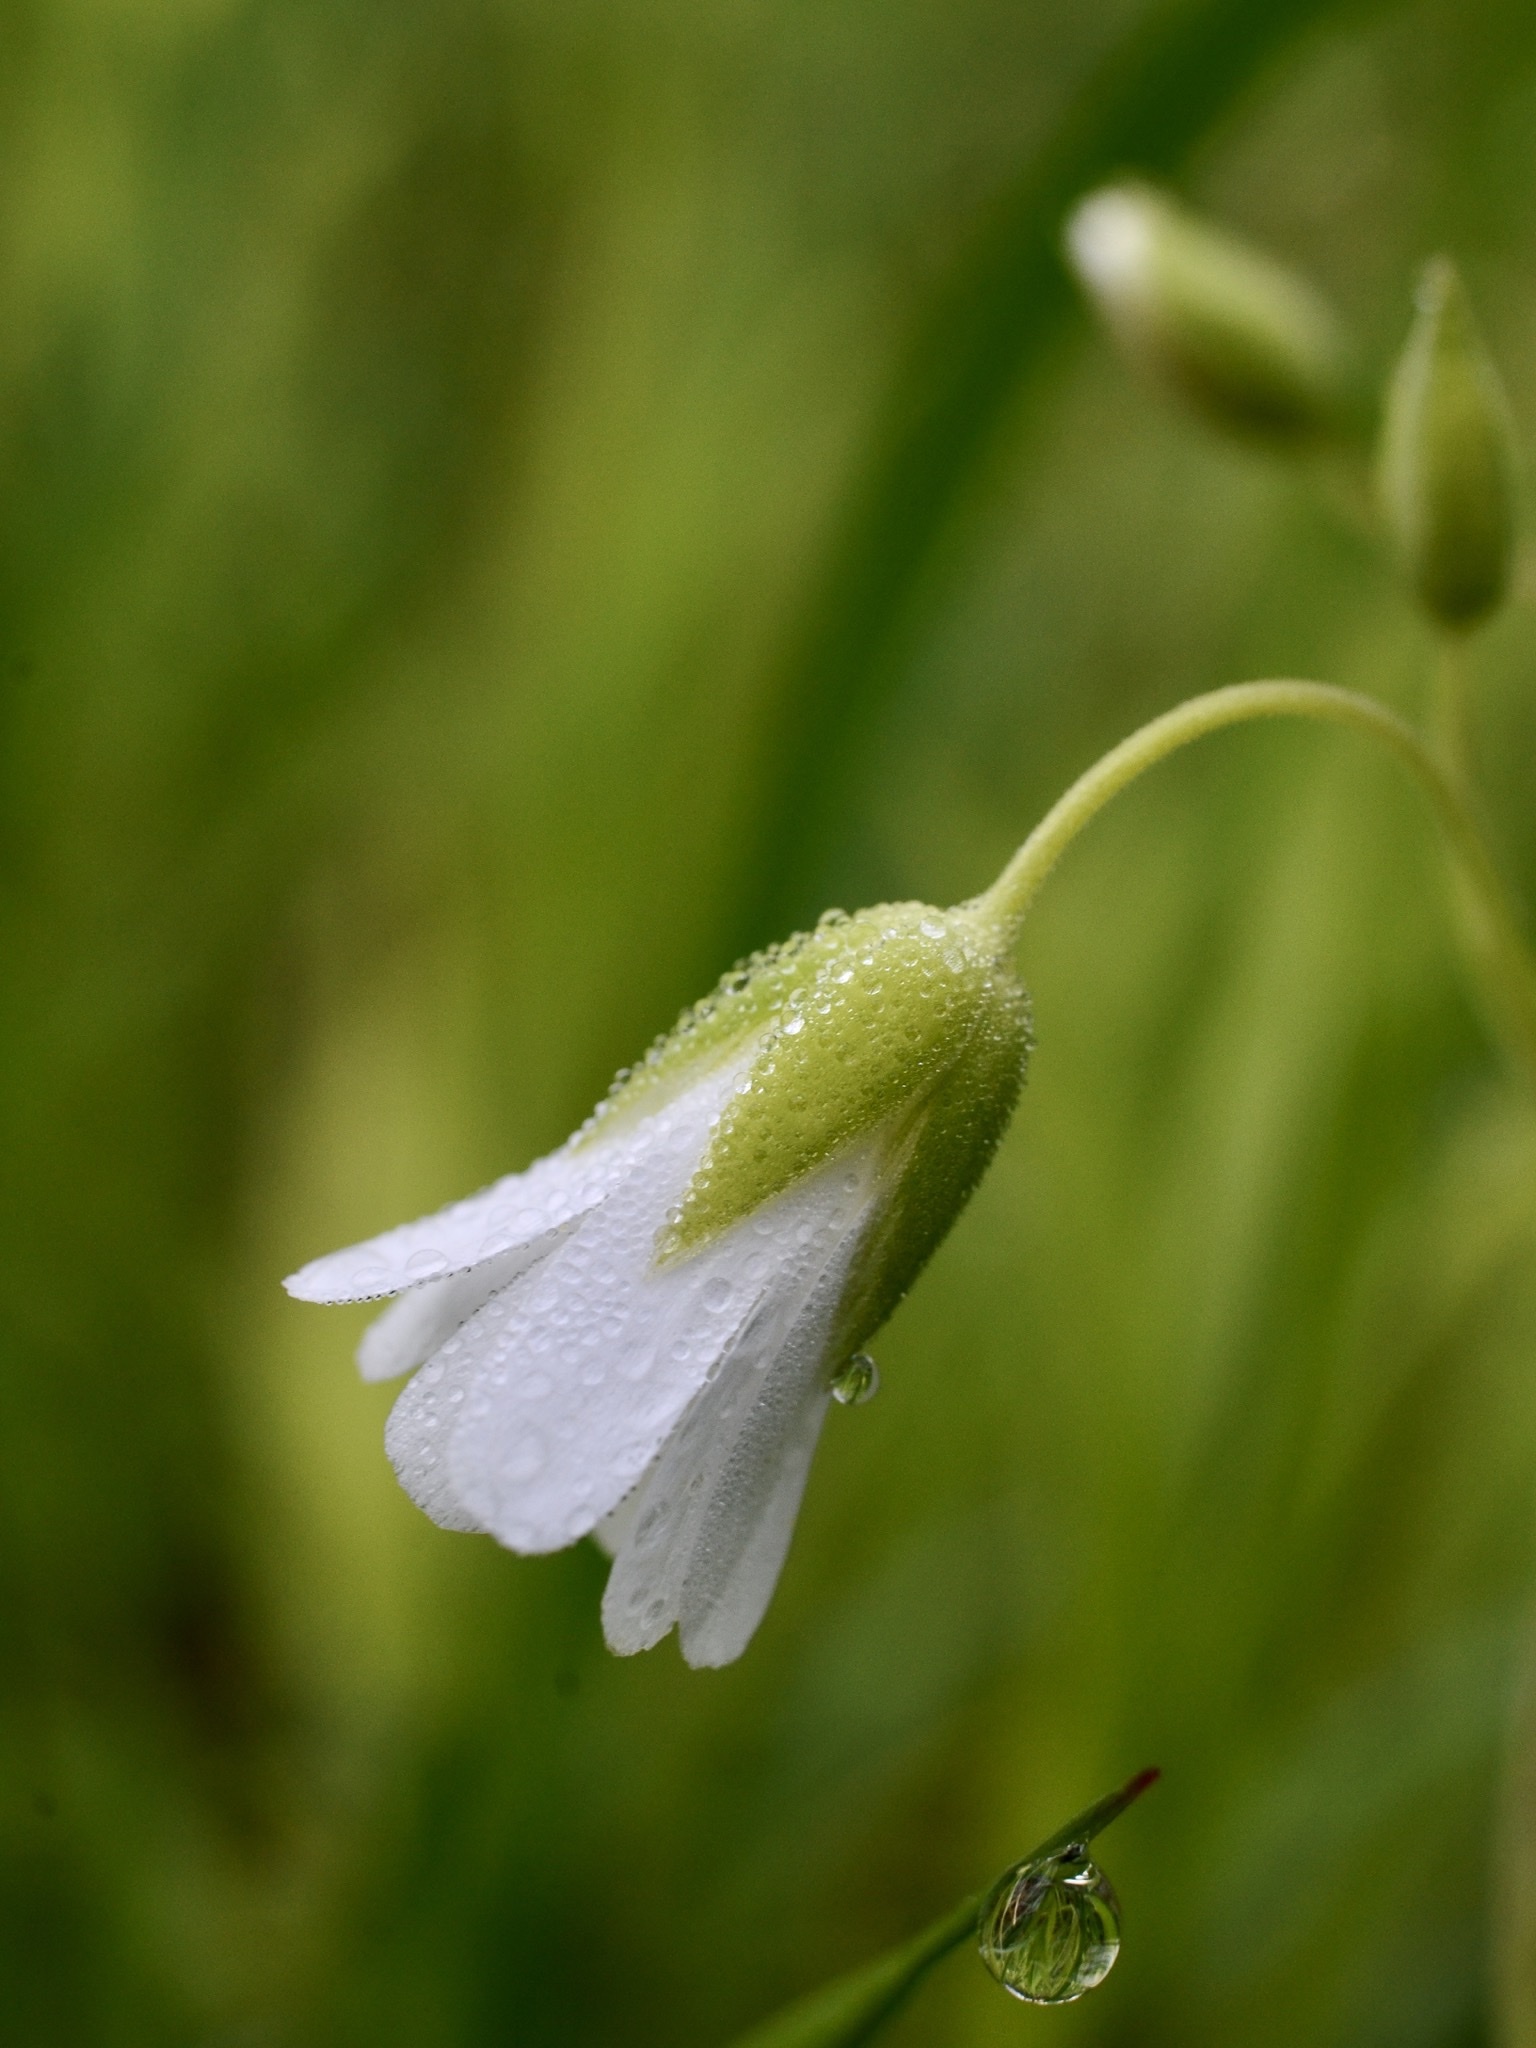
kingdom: Plantae
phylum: Tracheophyta
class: Magnoliopsida
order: Caryophyllales
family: Caryophyllaceae
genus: Rabelera
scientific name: Rabelera holostea
